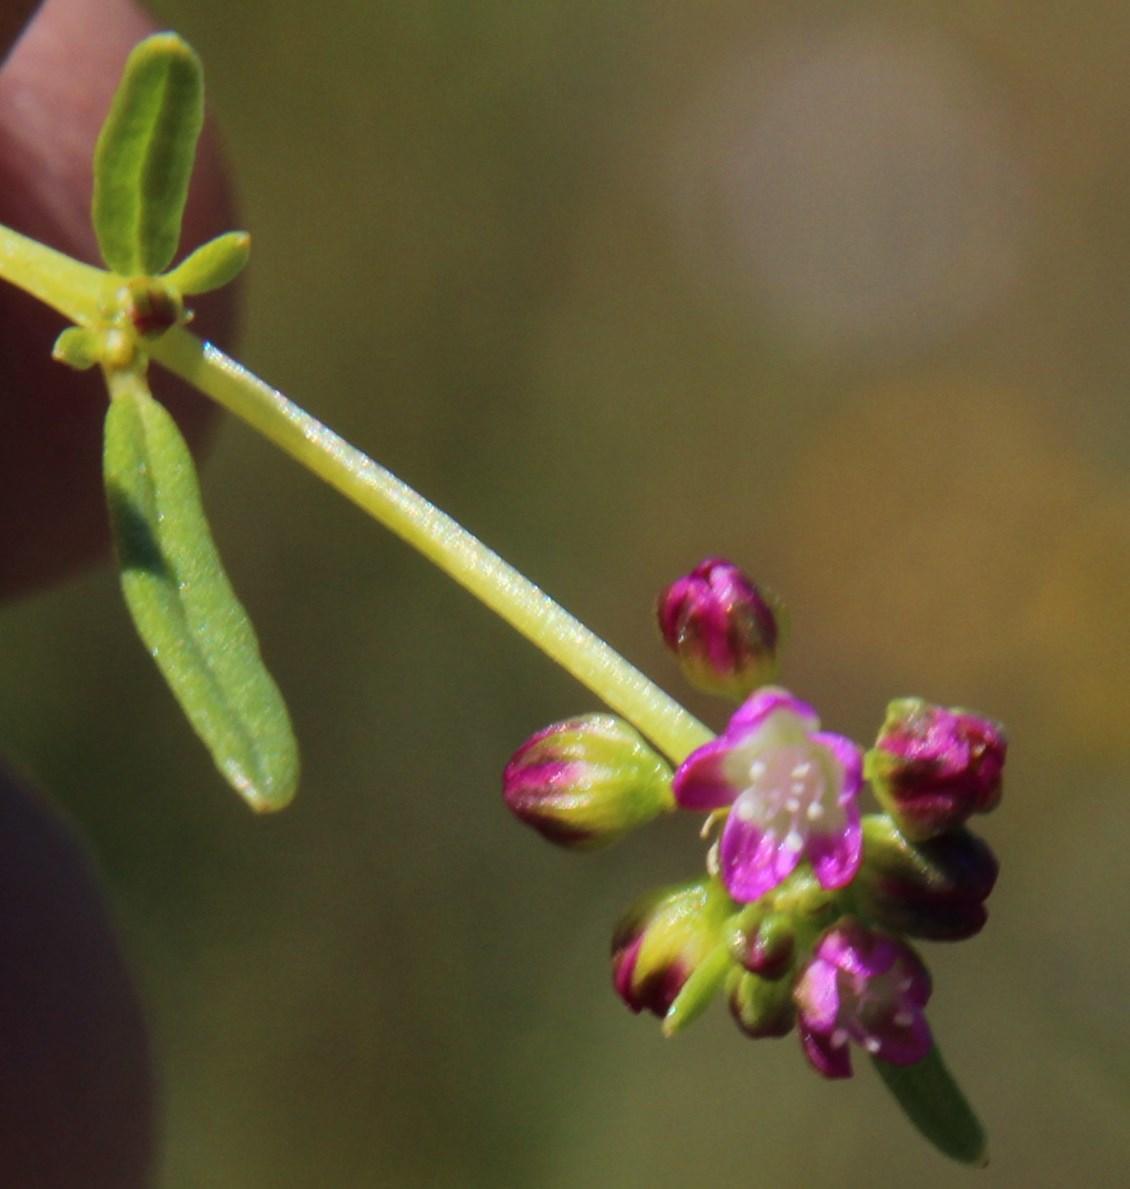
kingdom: Plantae
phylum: Tracheophyta
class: Magnoliopsida
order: Caryophyllales
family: Gisekiaceae
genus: Gisekia
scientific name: Gisekia pharnaceoides
